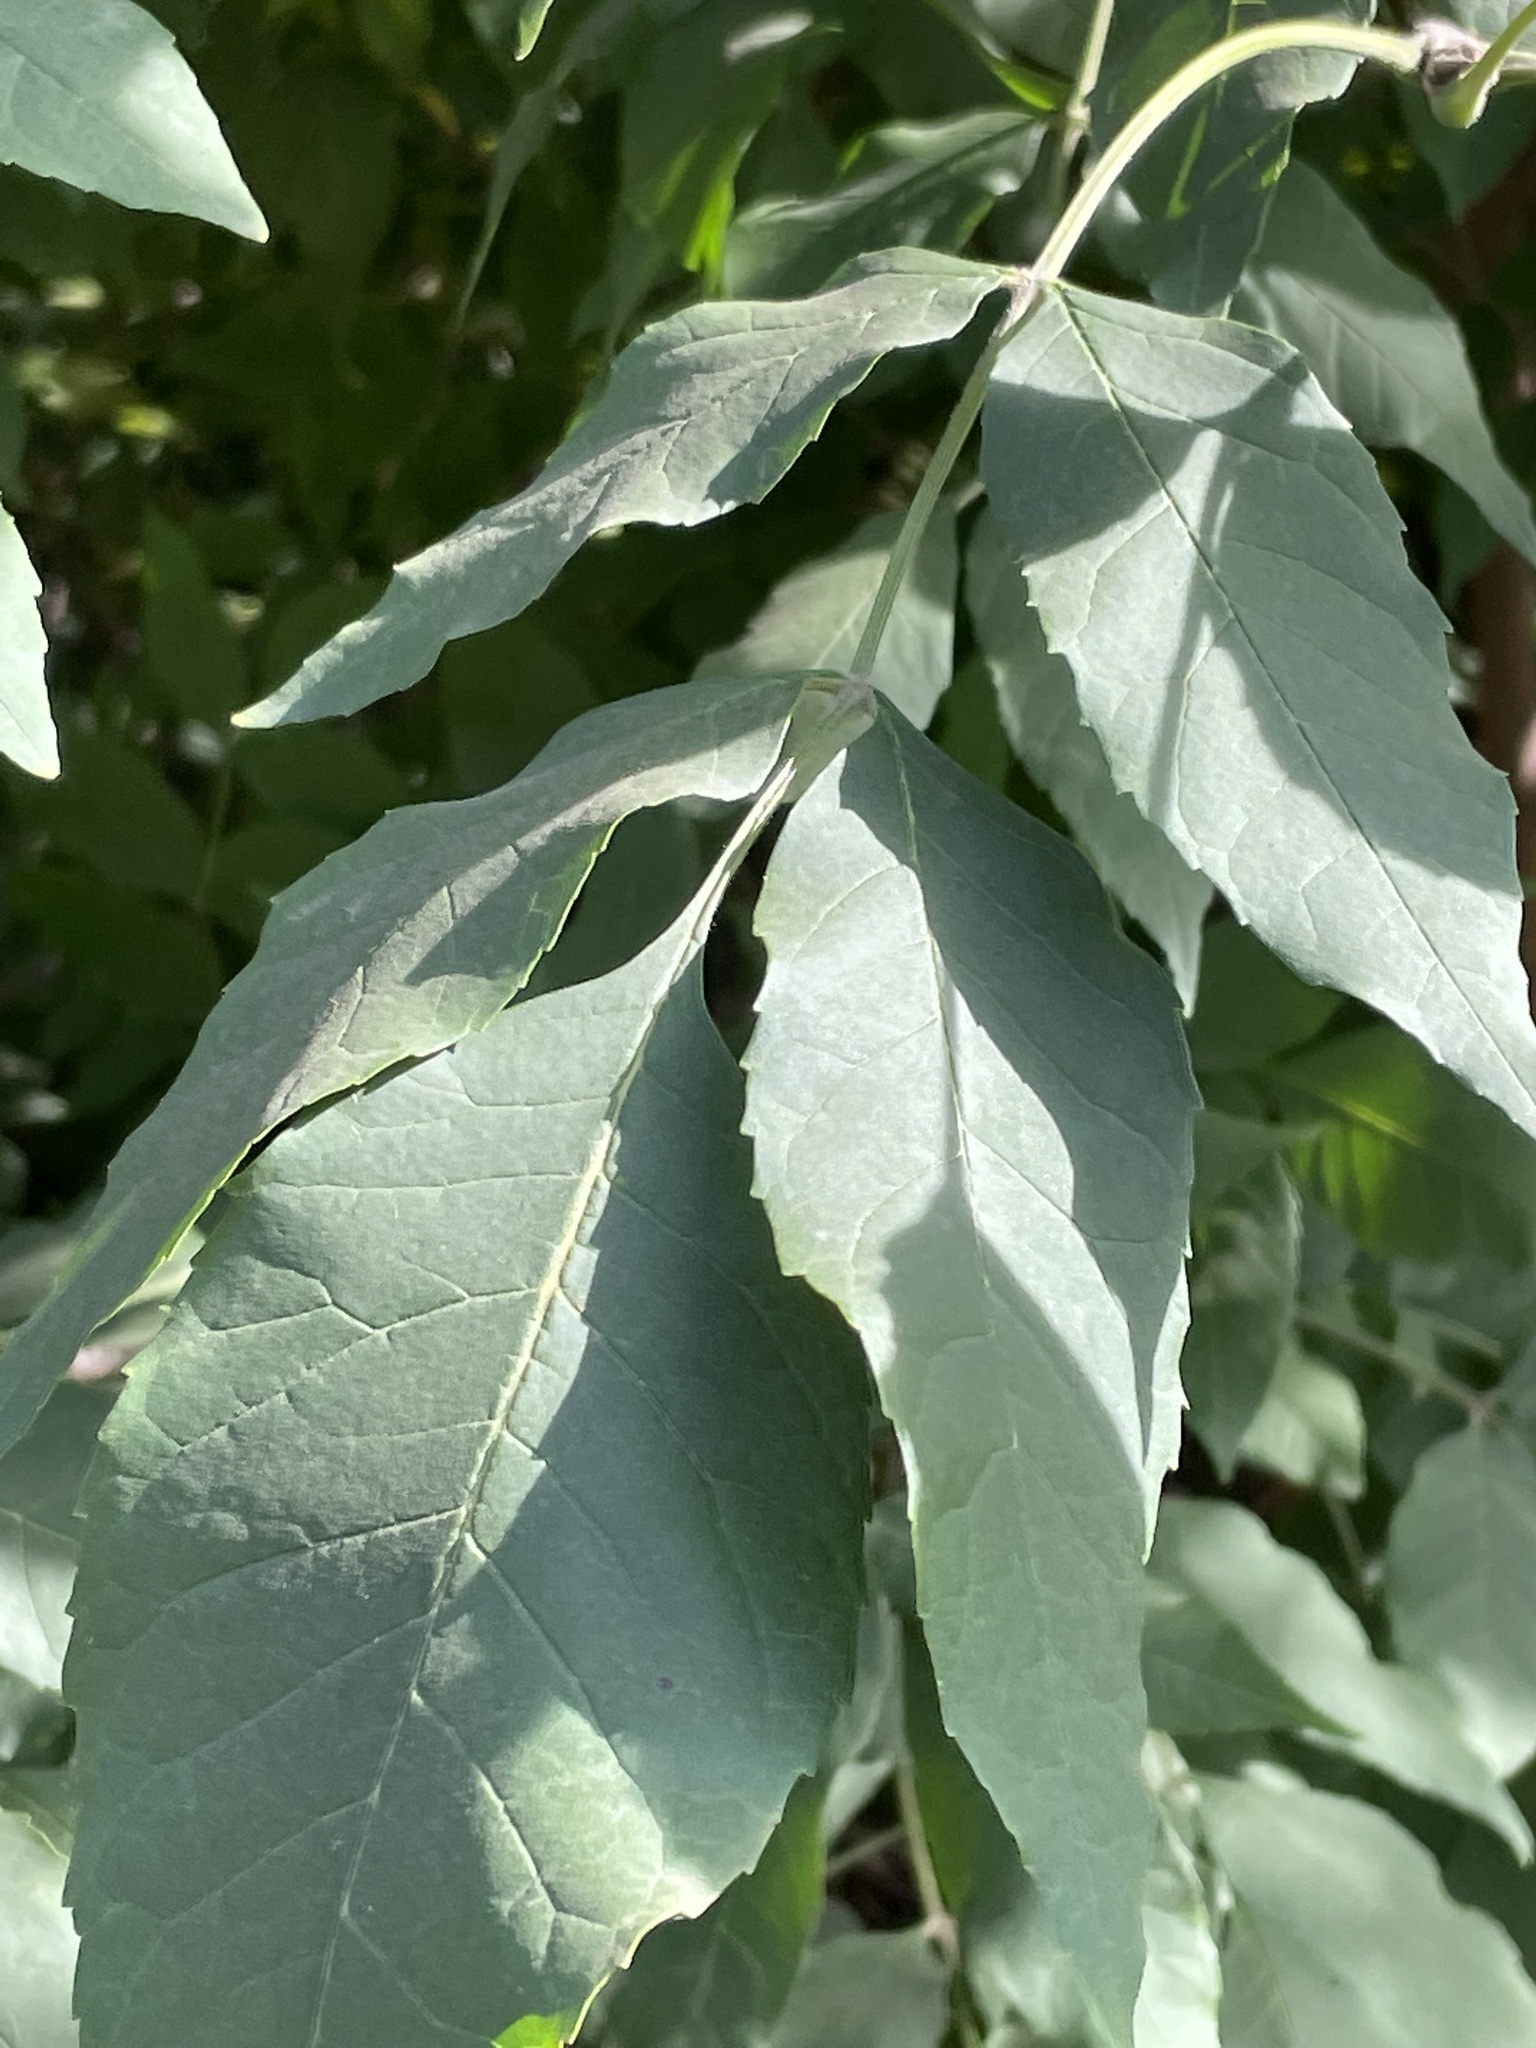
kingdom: Plantae
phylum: Tracheophyta
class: Magnoliopsida
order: Lamiales
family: Oleaceae
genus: Fraxinus
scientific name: Fraxinus pennsylvanica
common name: Green ash
